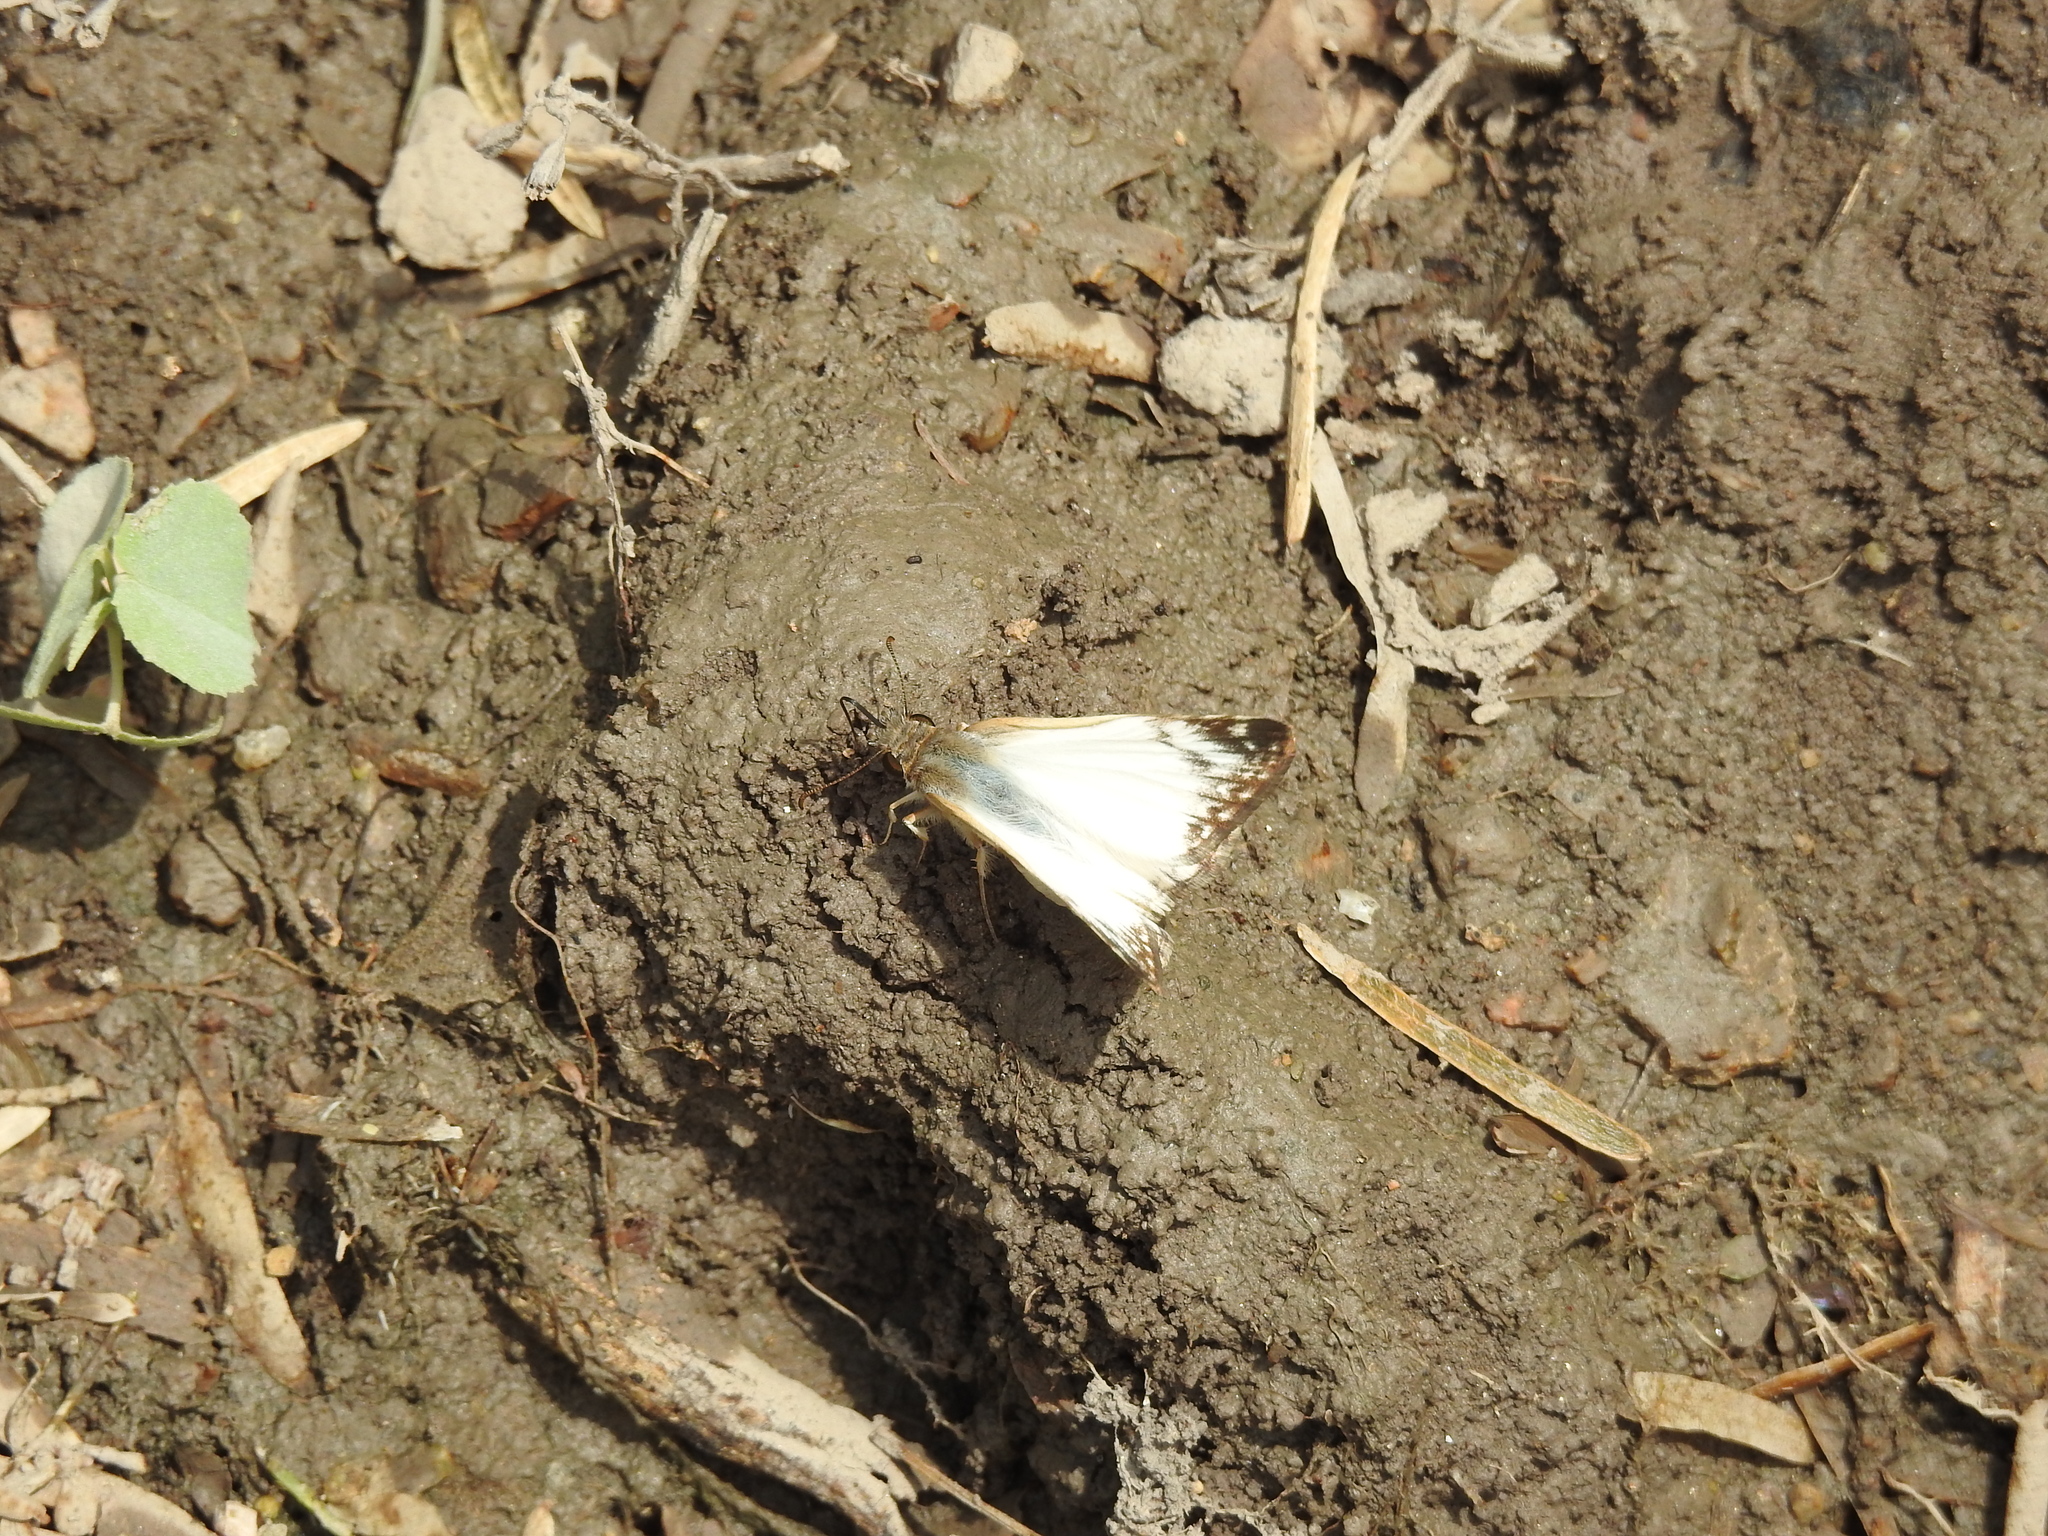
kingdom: Animalia
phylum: Arthropoda
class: Insecta
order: Lepidoptera
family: Hesperiidae
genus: Heliopetes
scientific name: Heliopetes laviana
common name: Laviana white-skipper
